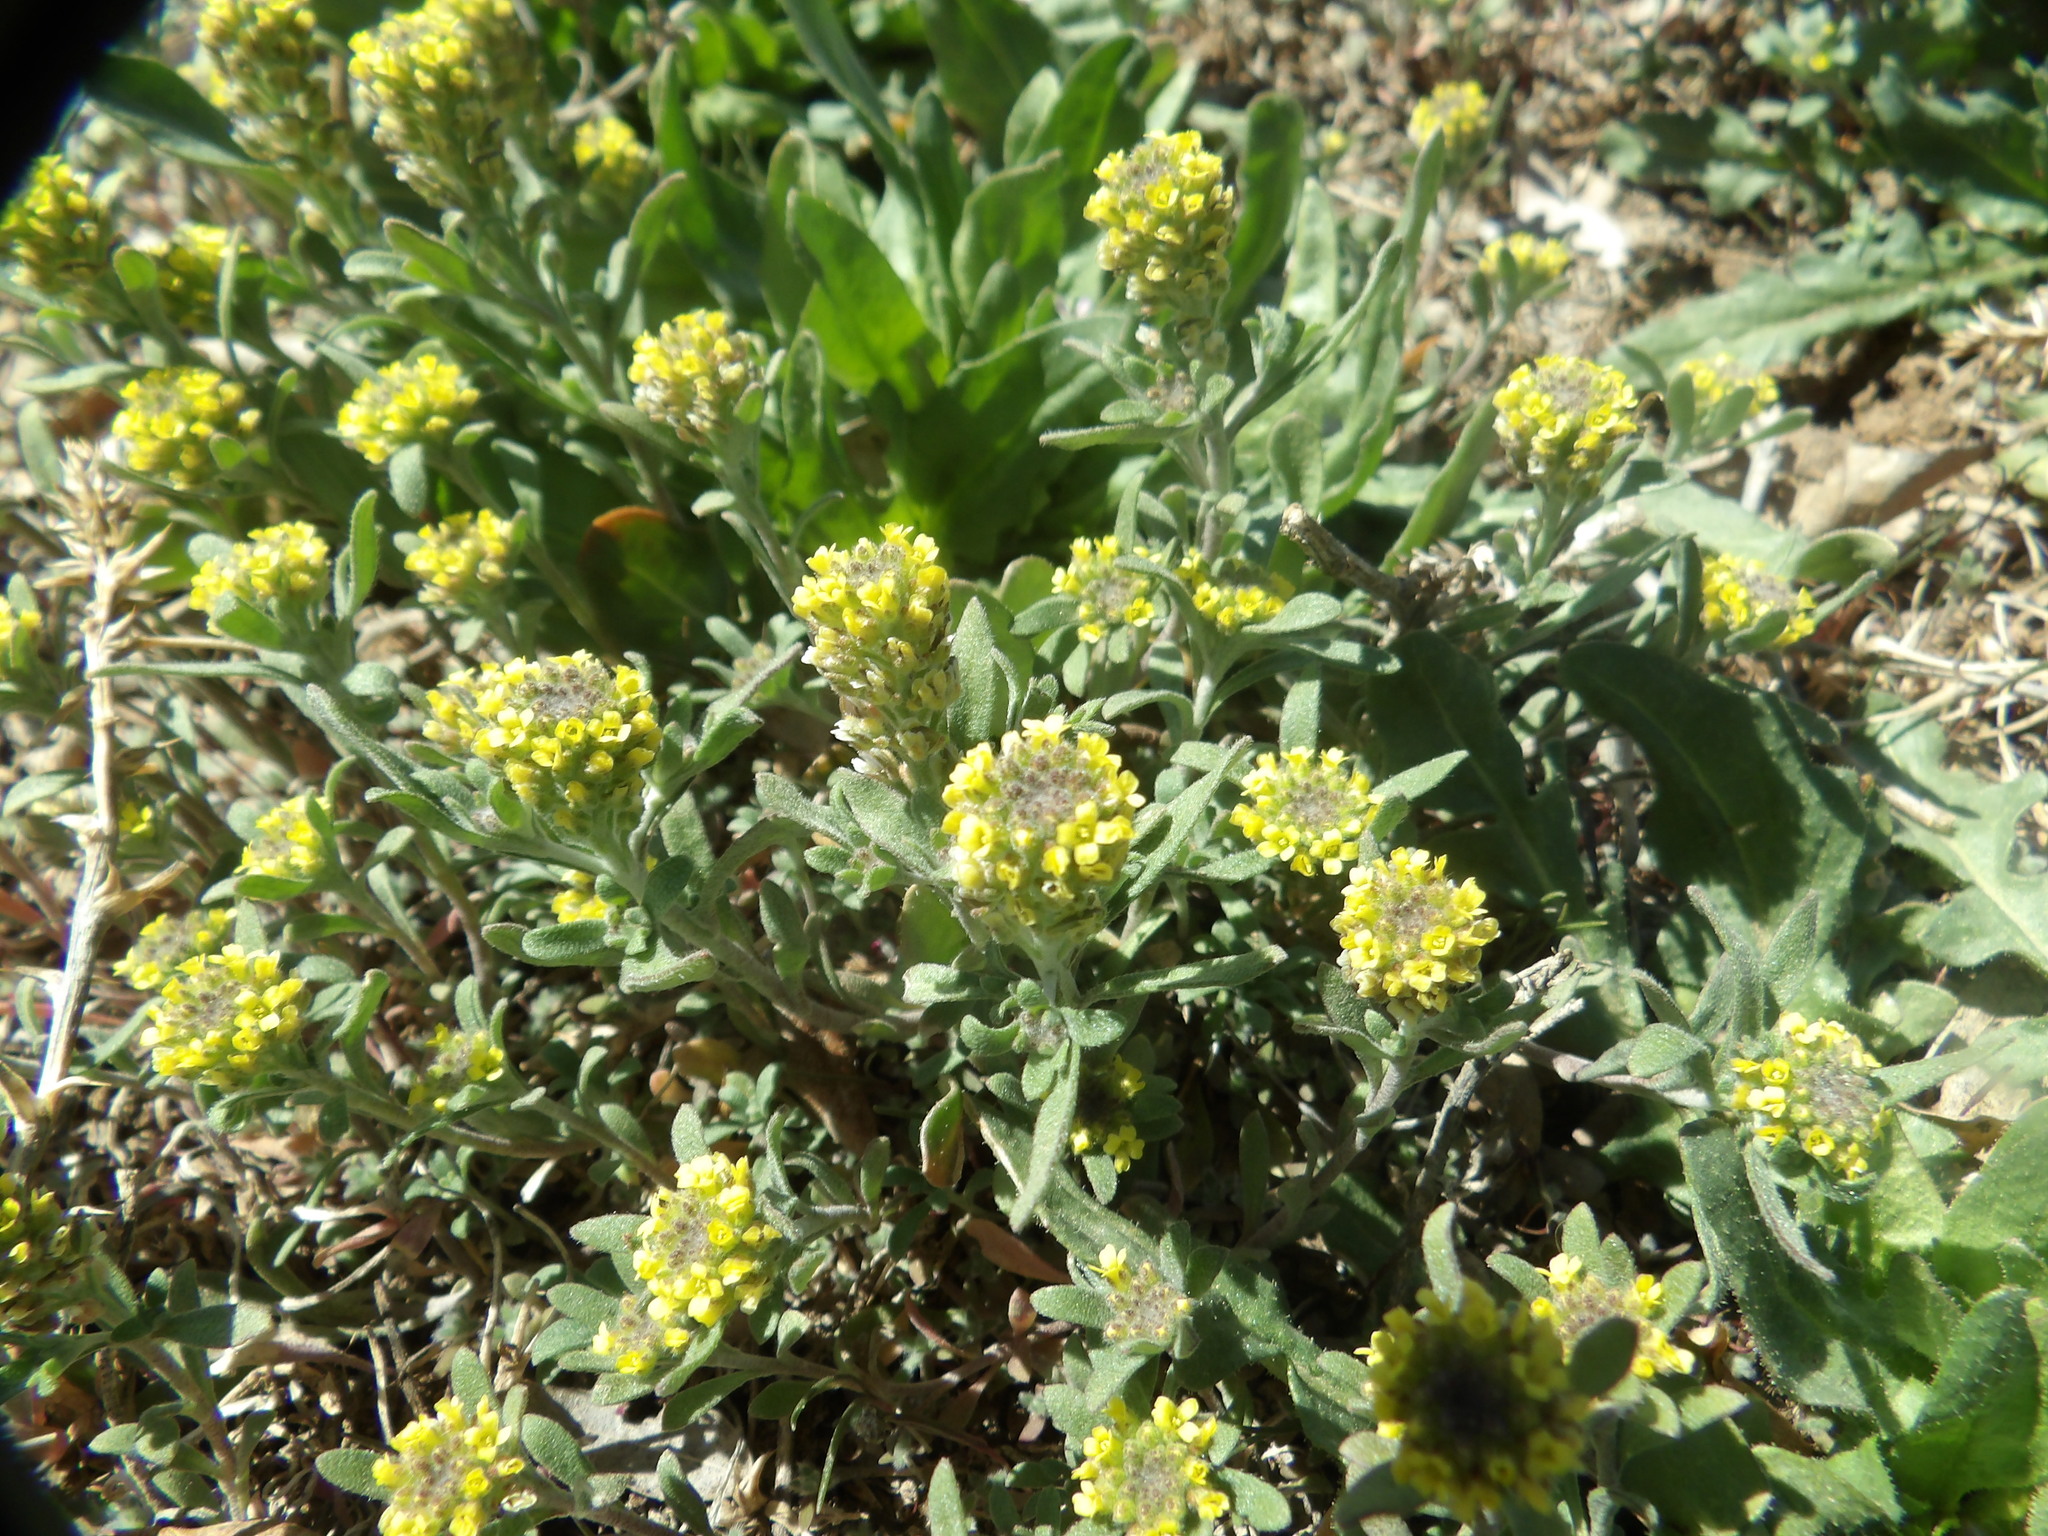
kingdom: Plantae
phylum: Tracheophyta
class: Magnoliopsida
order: Brassicales
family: Brassicaceae
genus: Alyssum
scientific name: Alyssum turkestanicum
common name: Desert alyssum
